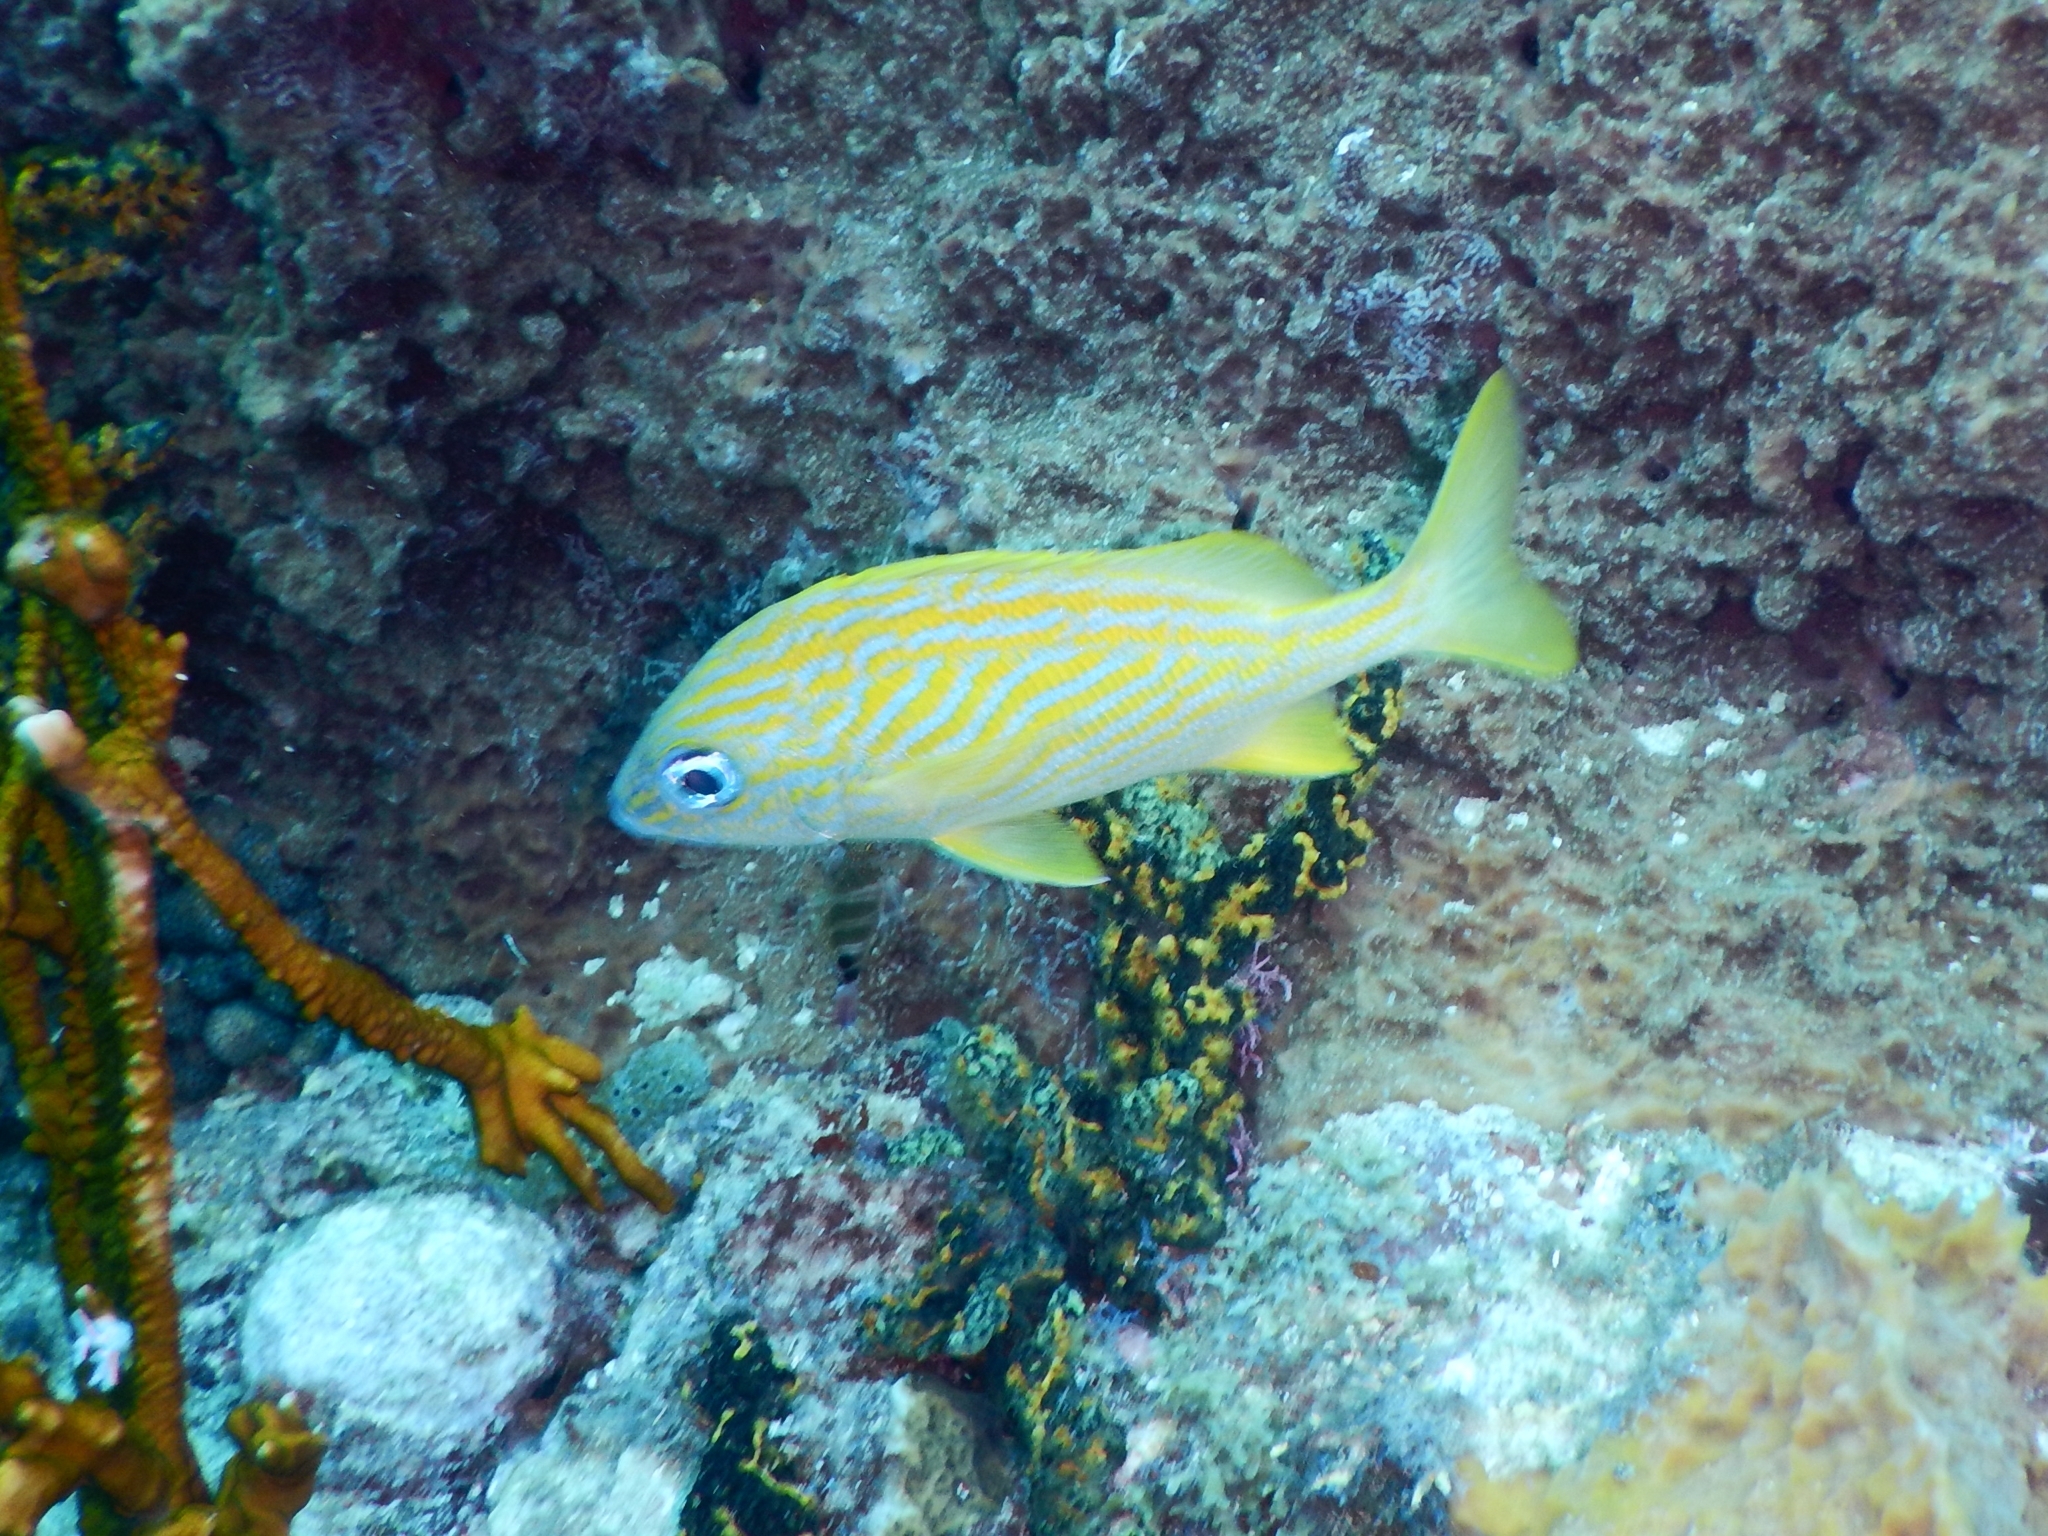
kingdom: Animalia
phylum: Chordata
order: Perciformes
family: Haemulidae
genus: Haemulon
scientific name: Haemulon flavolineatum
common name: French grunt
